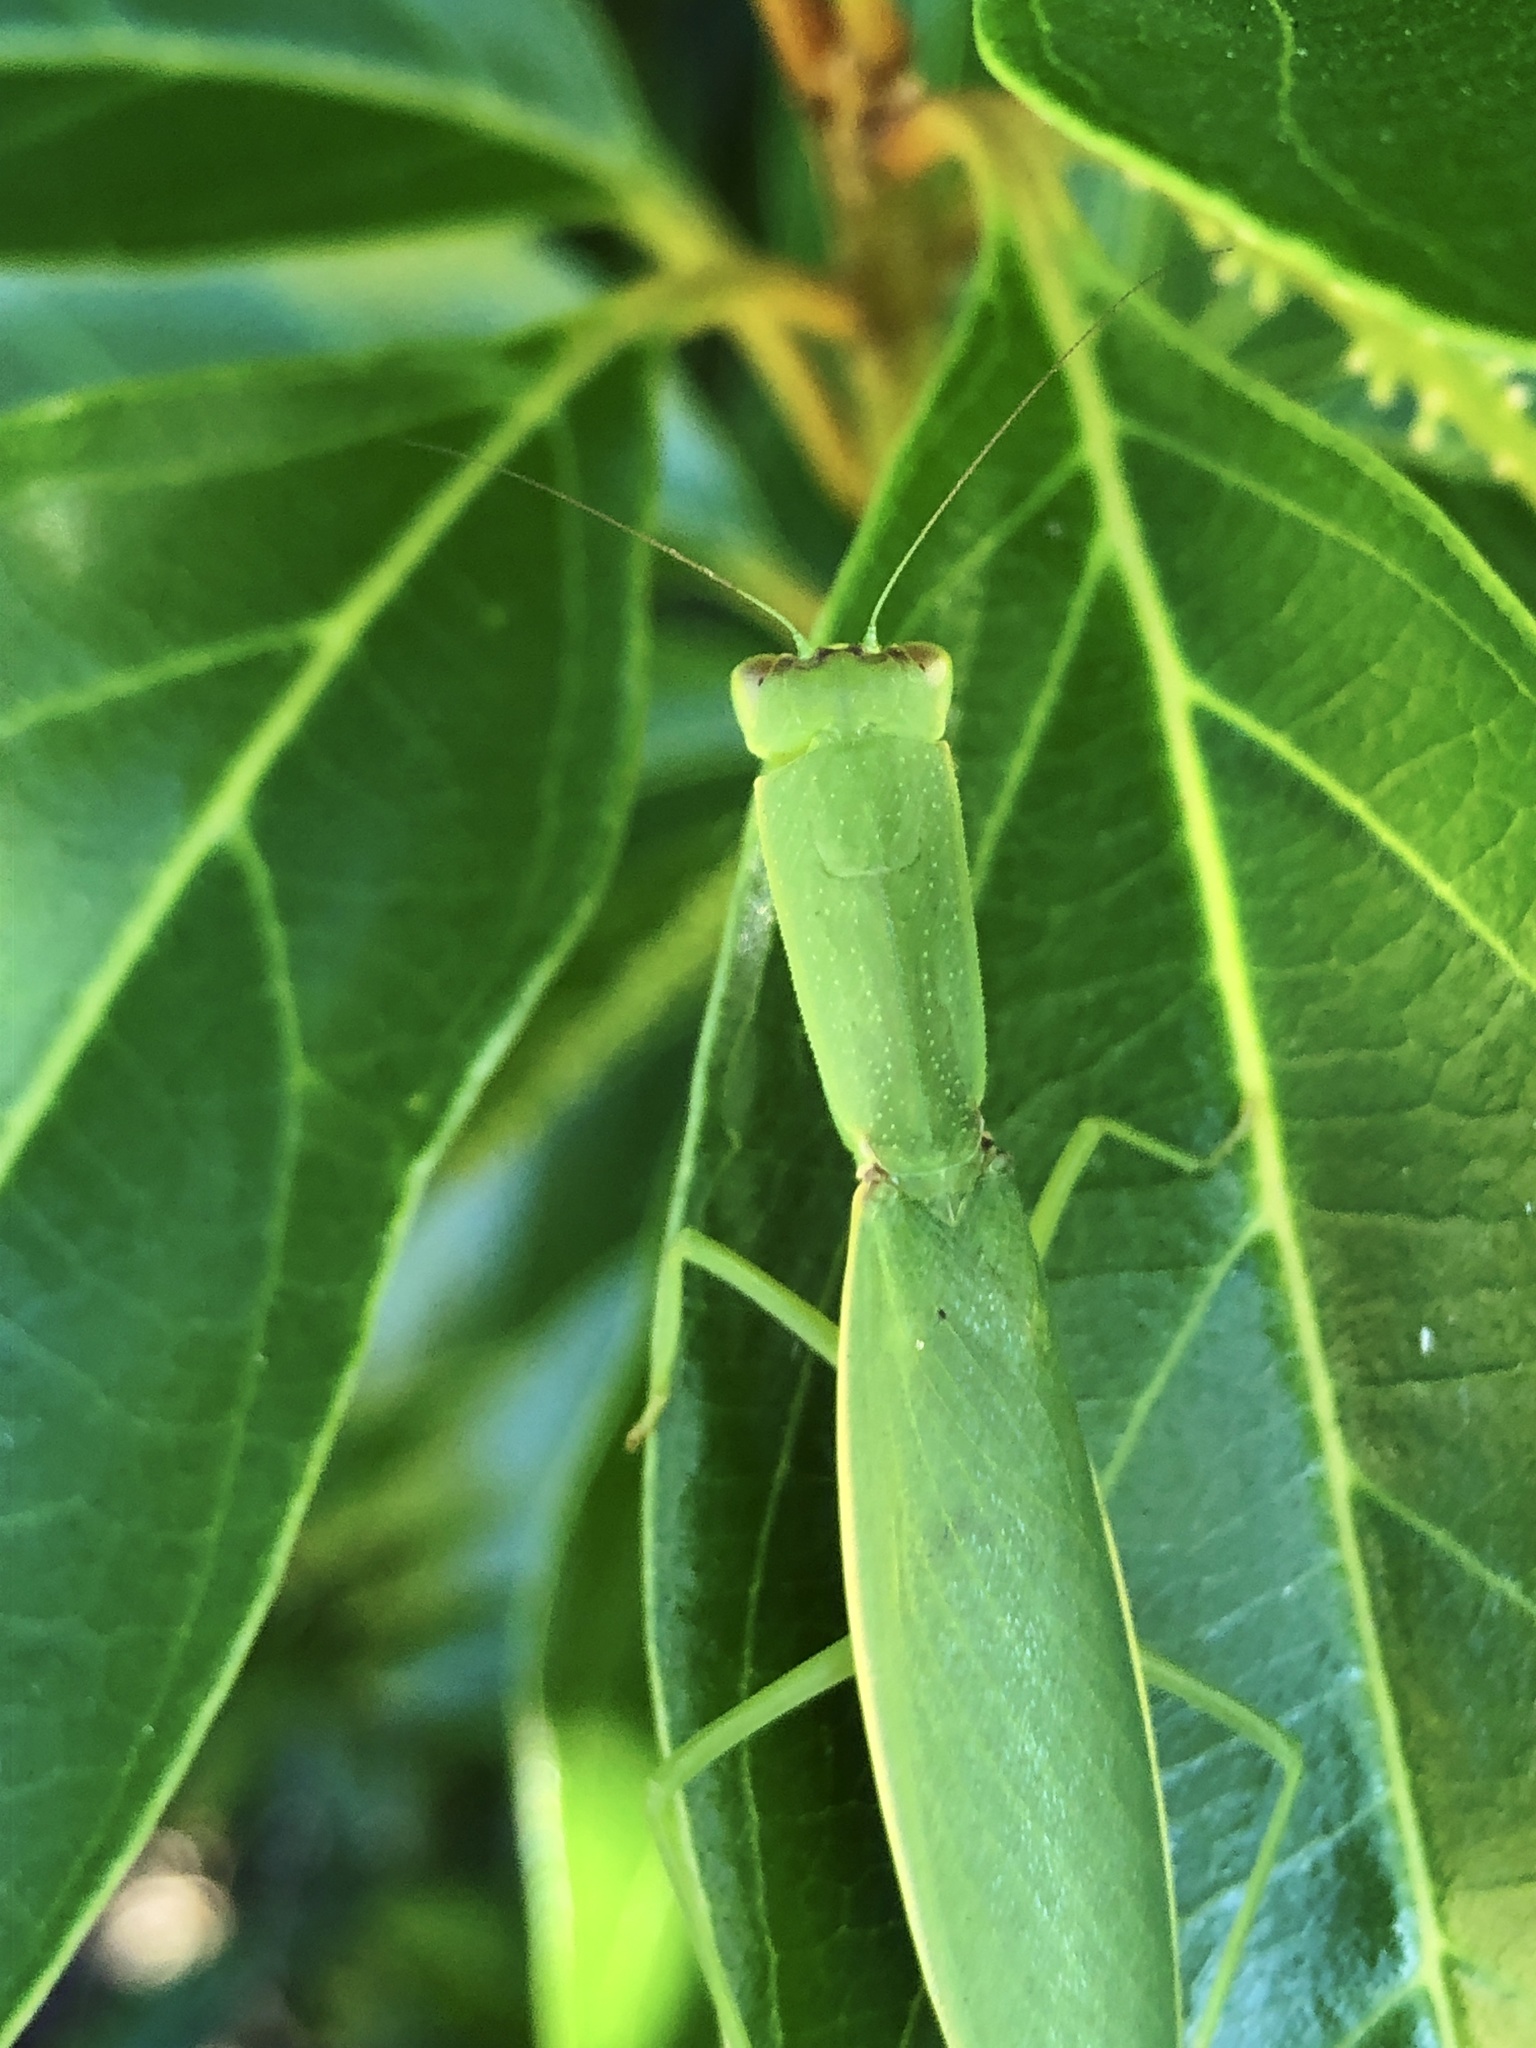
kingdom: Animalia
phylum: Arthropoda
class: Insecta
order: Mantodea
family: Mantidae
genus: Orthodera
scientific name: Orthodera ministralis
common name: Mantis
